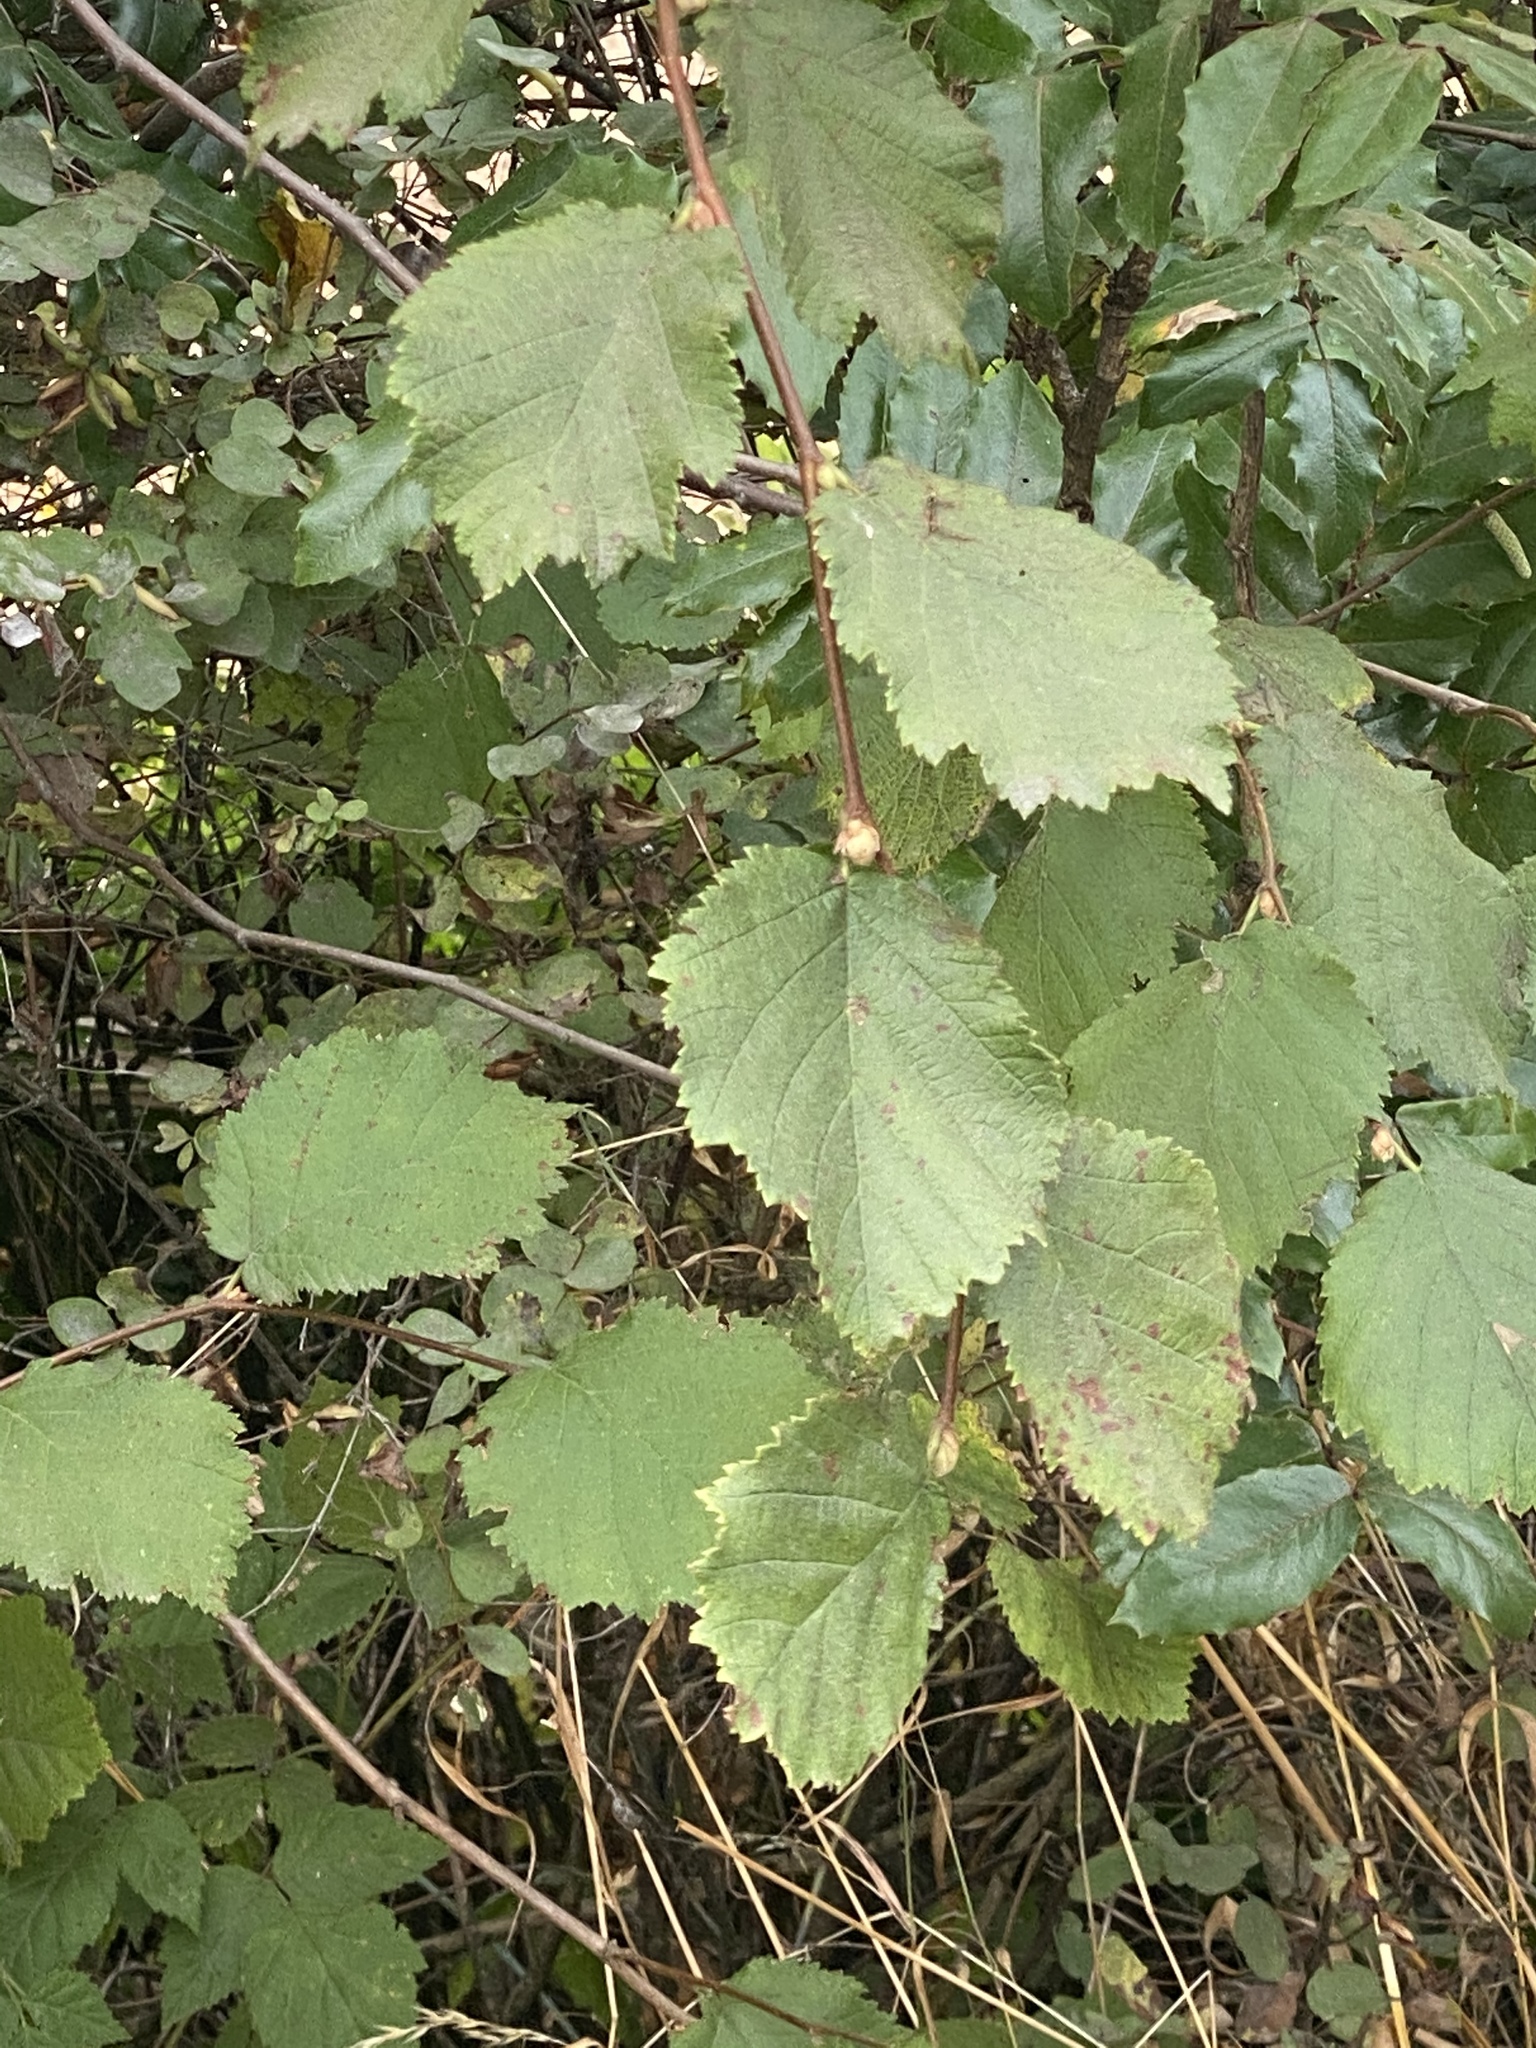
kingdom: Plantae
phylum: Tracheophyta
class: Magnoliopsida
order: Fagales
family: Betulaceae
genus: Corylus
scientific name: Corylus avellana
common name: European hazel
